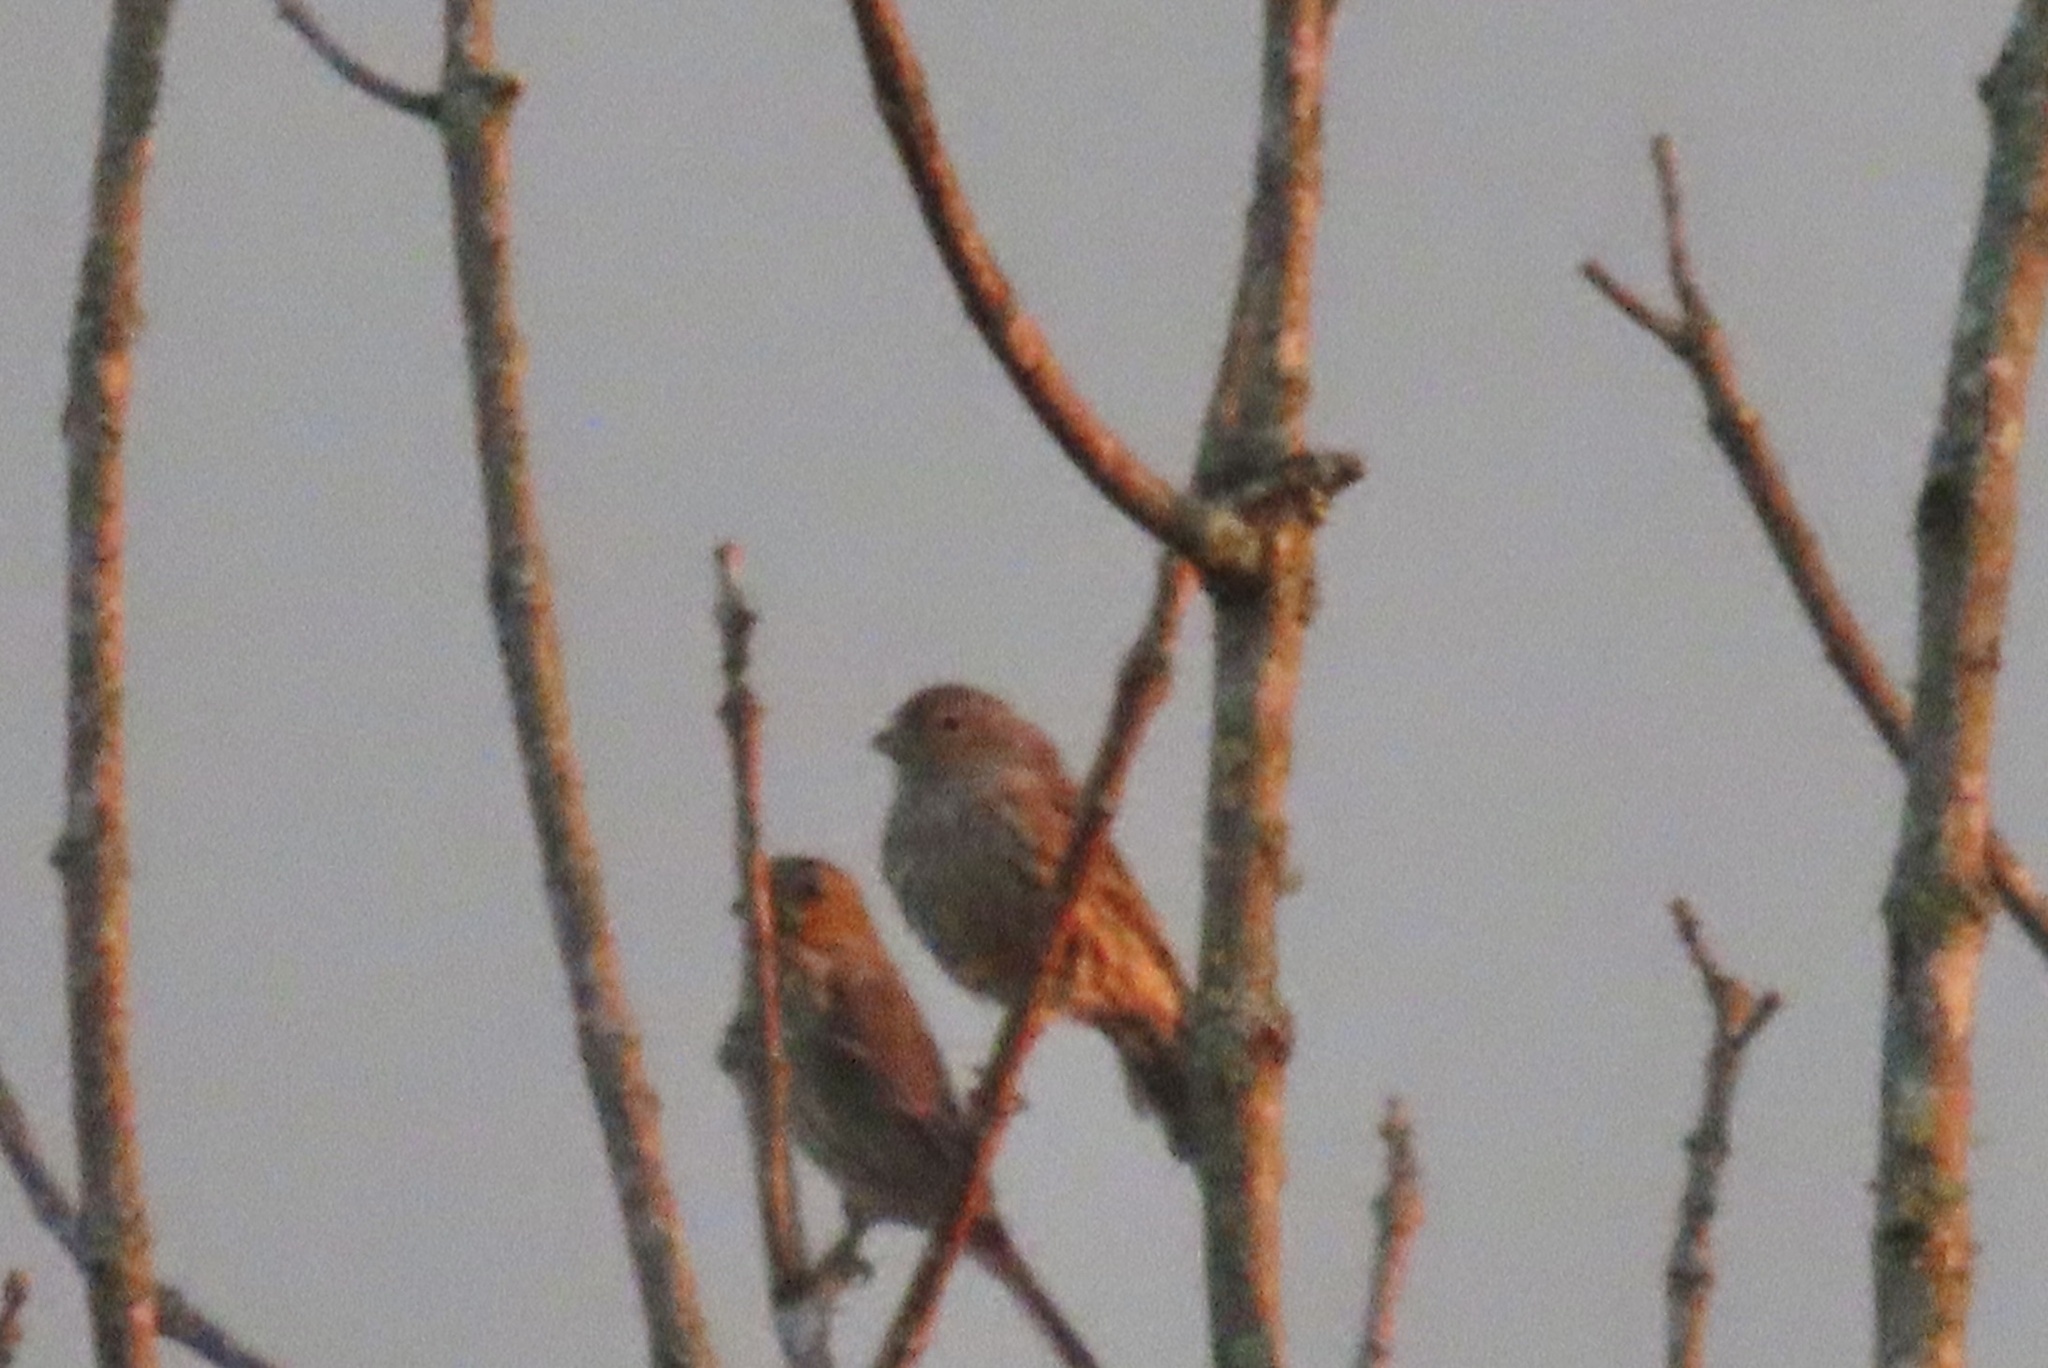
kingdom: Animalia
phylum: Chordata
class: Aves
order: Passeriformes
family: Fringillidae
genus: Haemorhous
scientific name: Haemorhous mexicanus
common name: House finch
